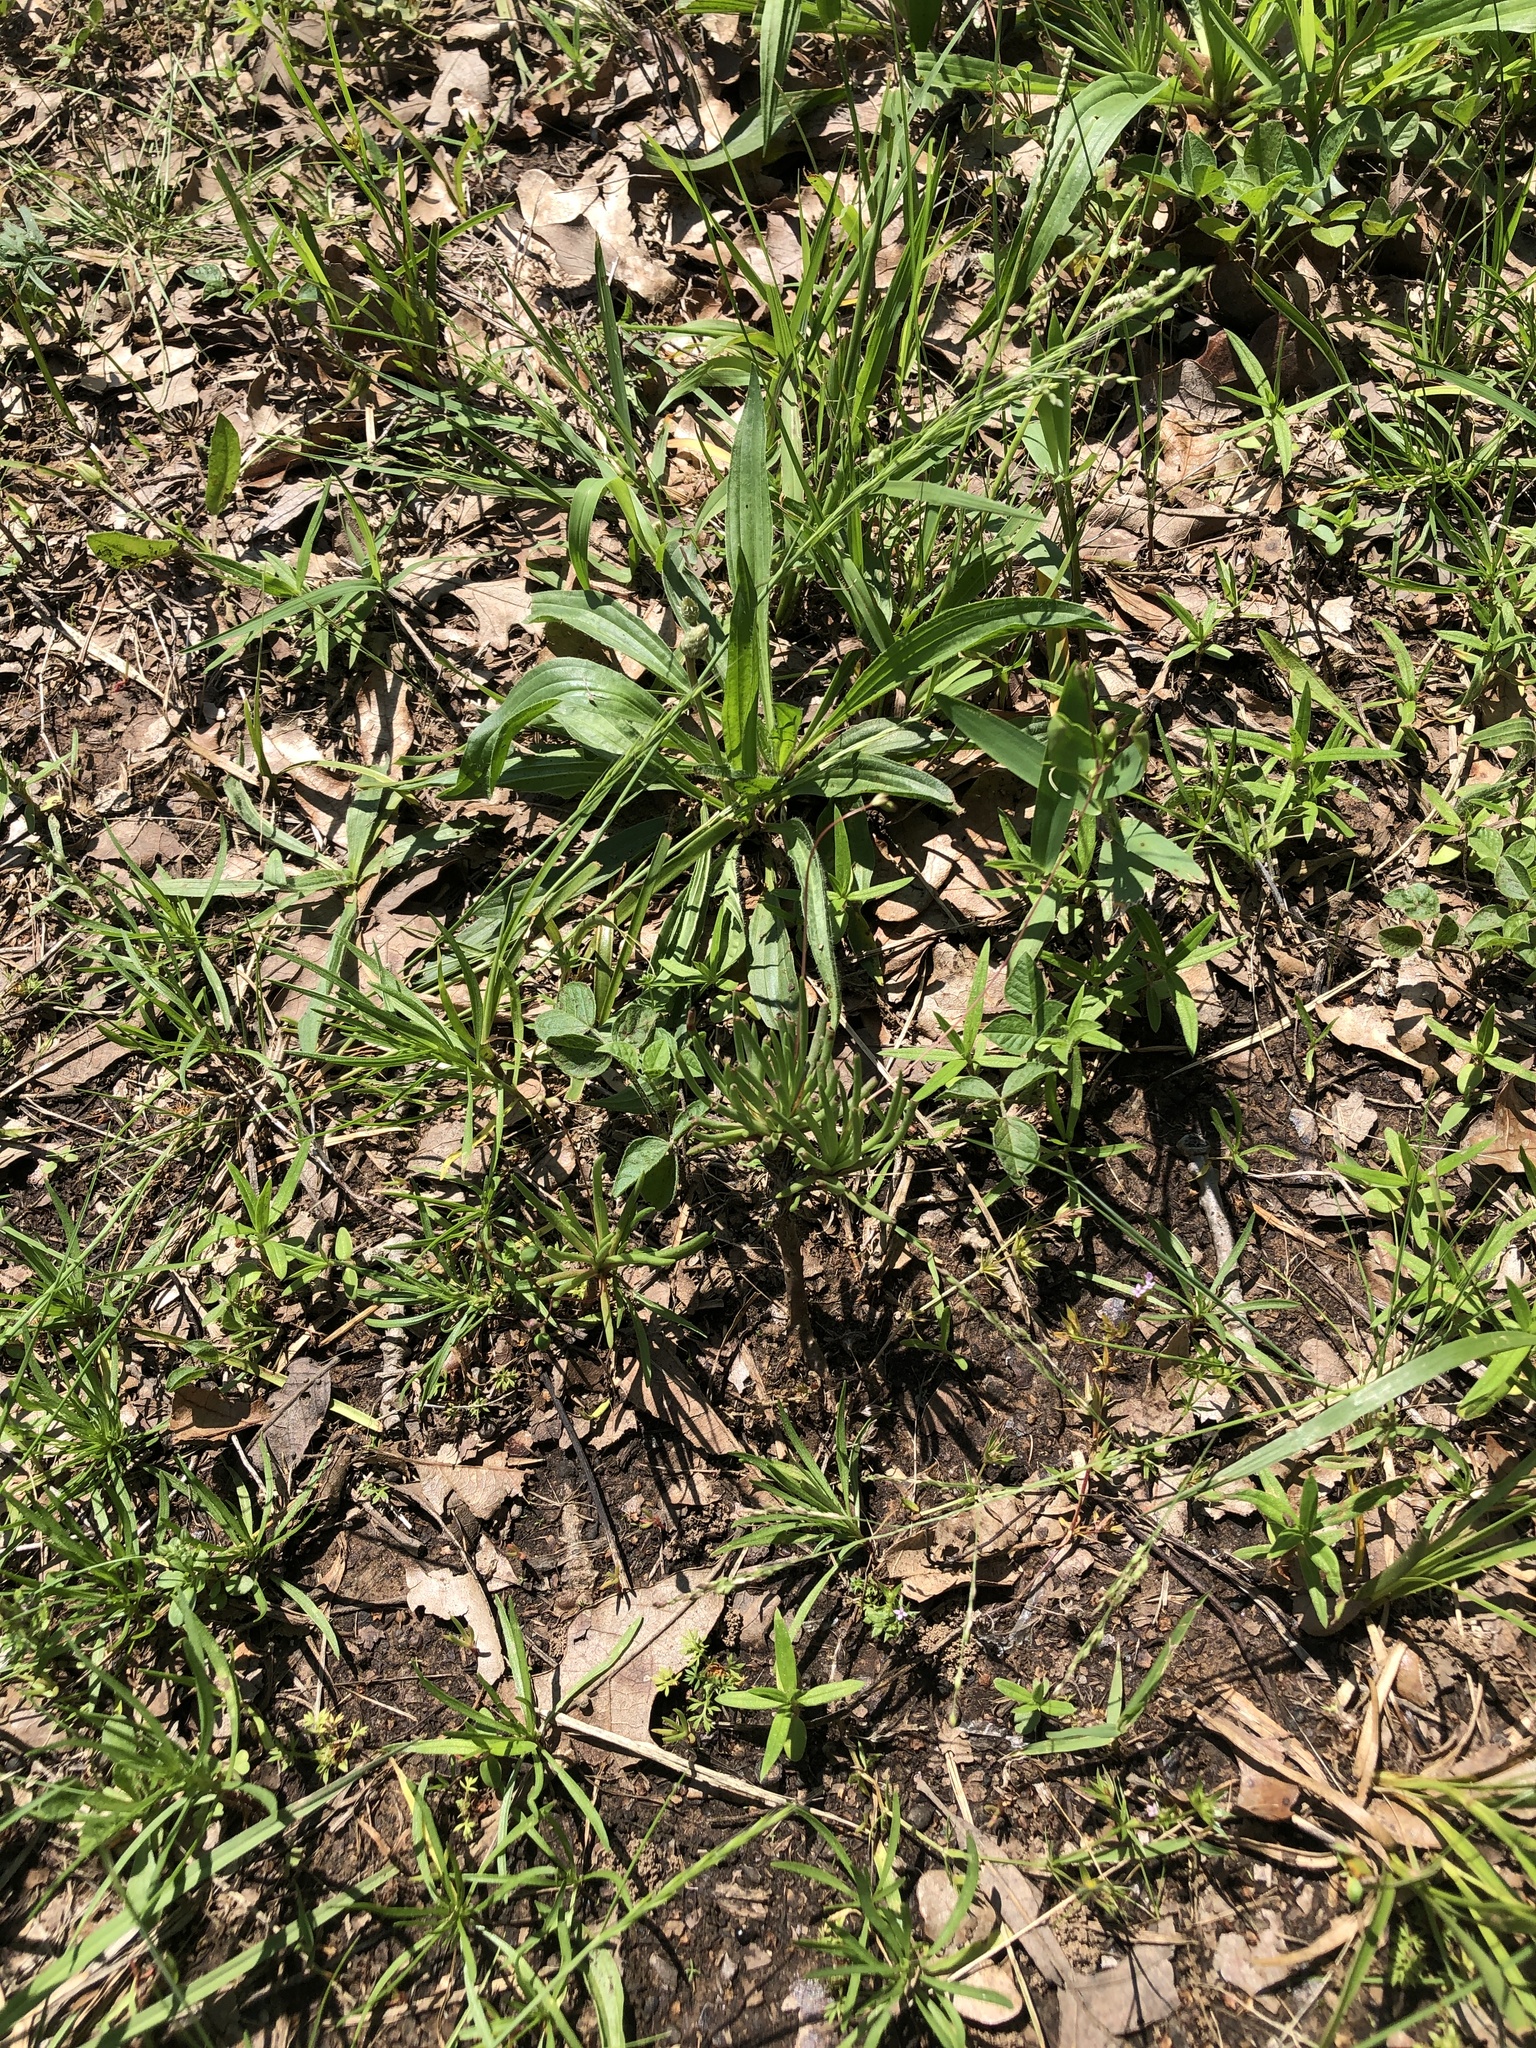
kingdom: Plantae
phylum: Tracheophyta
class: Magnoliopsida
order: Caryophyllales
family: Montiaceae
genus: Phemeranthus
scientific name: Phemeranthus parviflorus
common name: Sunbright
